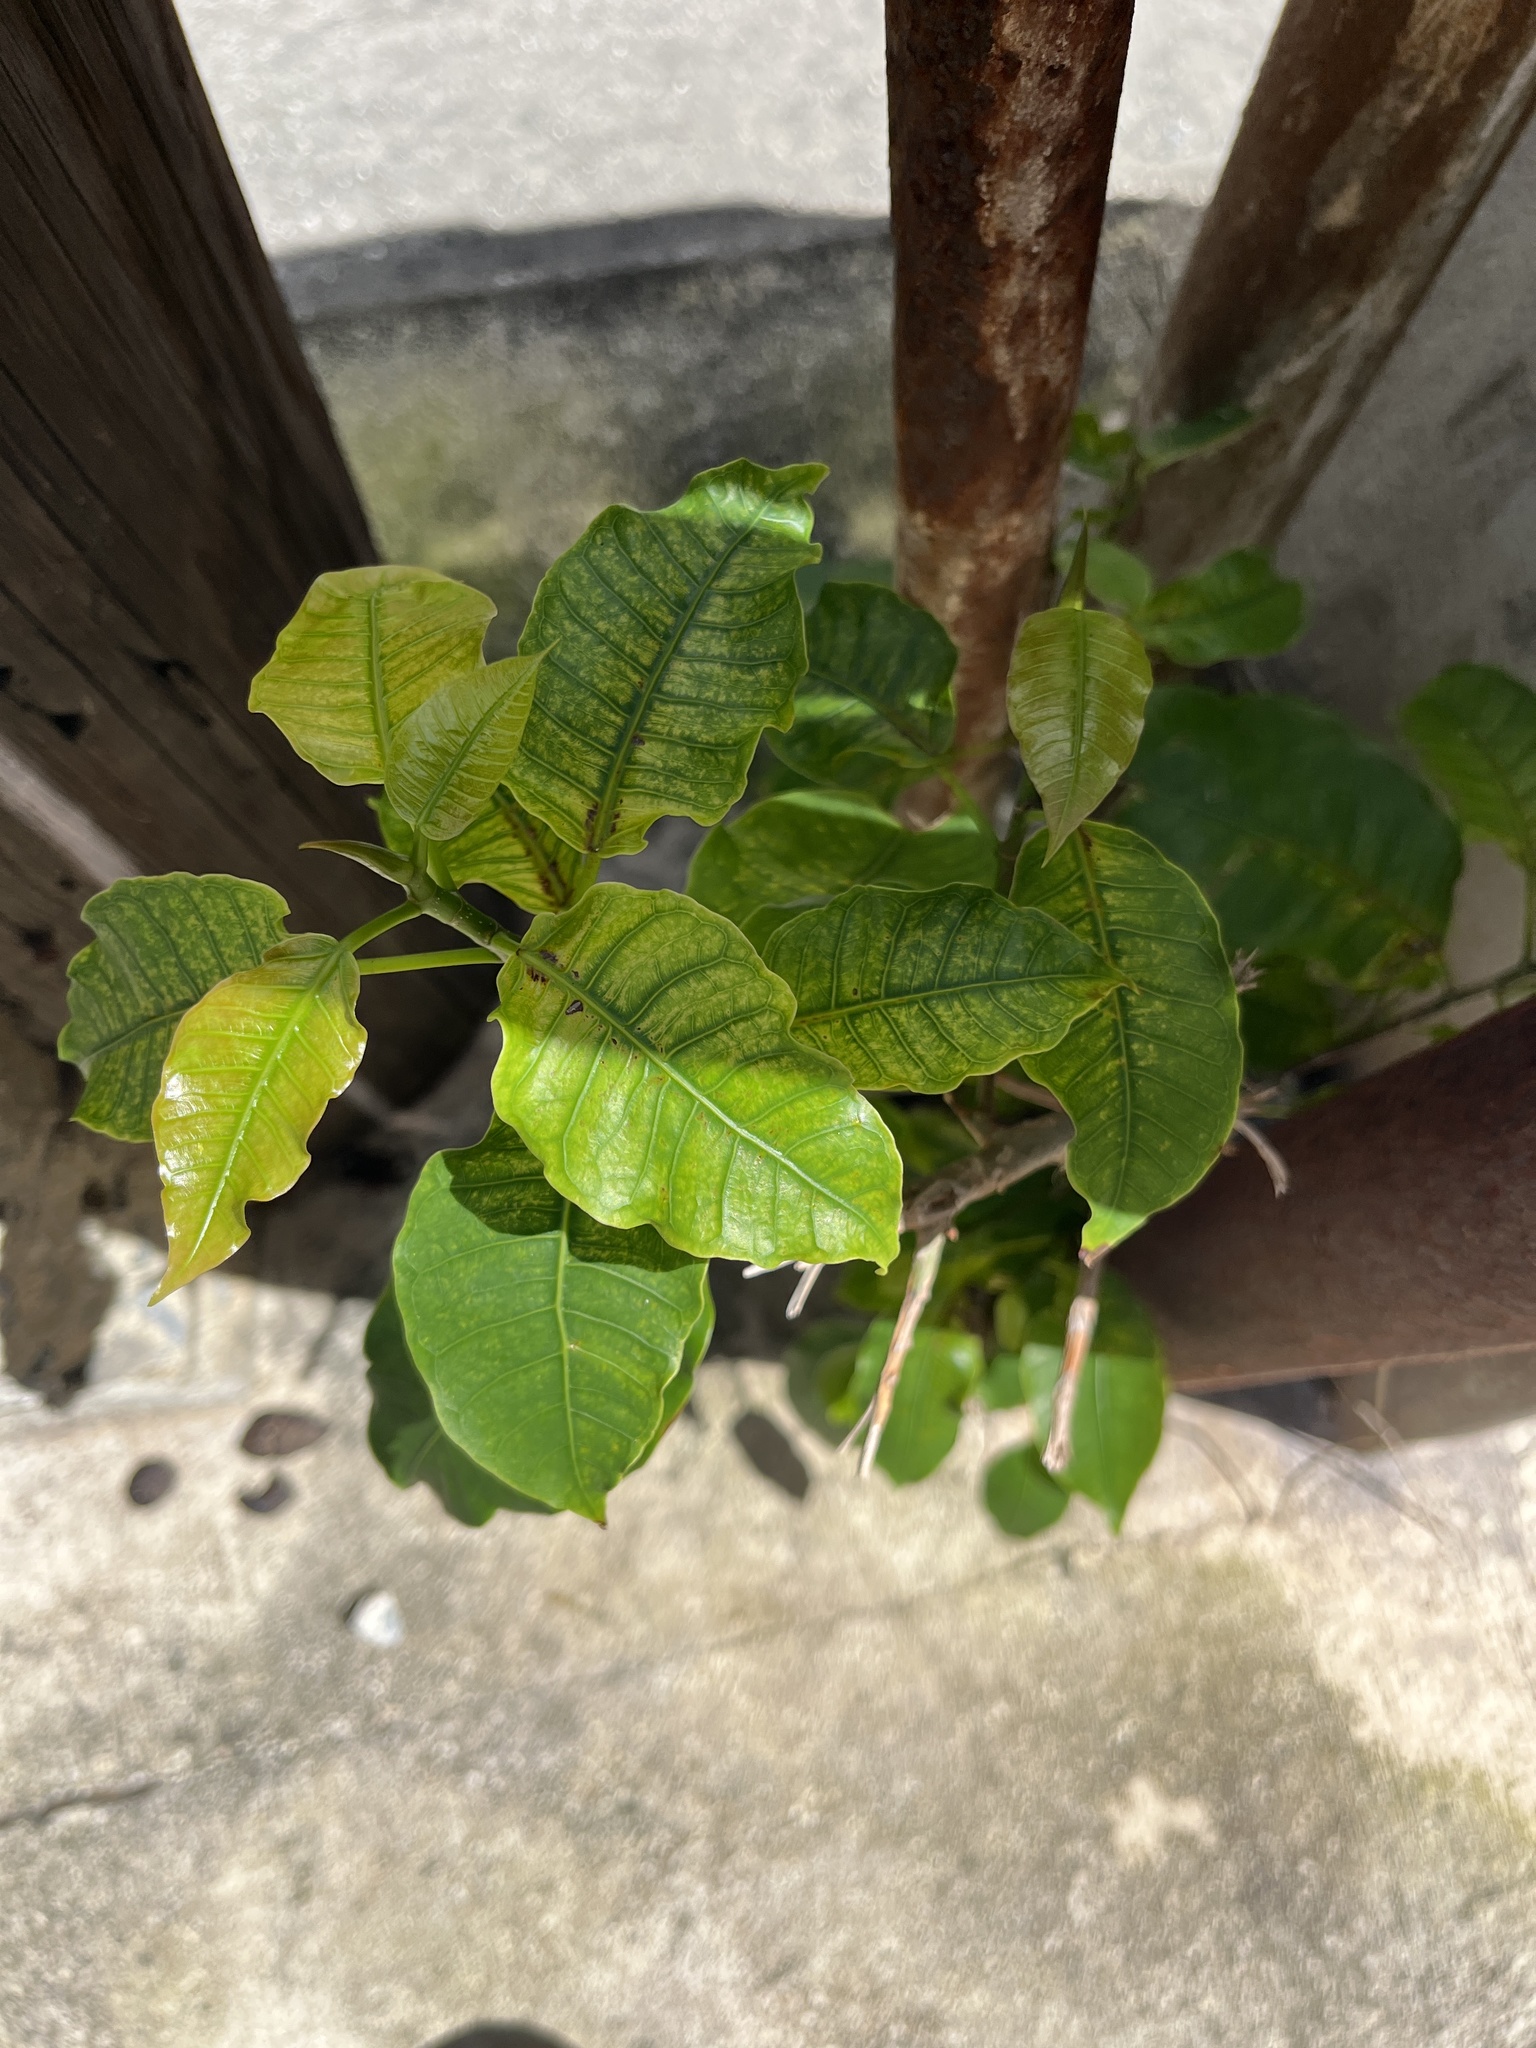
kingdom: Plantae
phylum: Tracheophyta
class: Magnoliopsida
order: Rosales
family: Moraceae
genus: Ficus
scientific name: Ficus citrifolia
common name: Strangler fig
